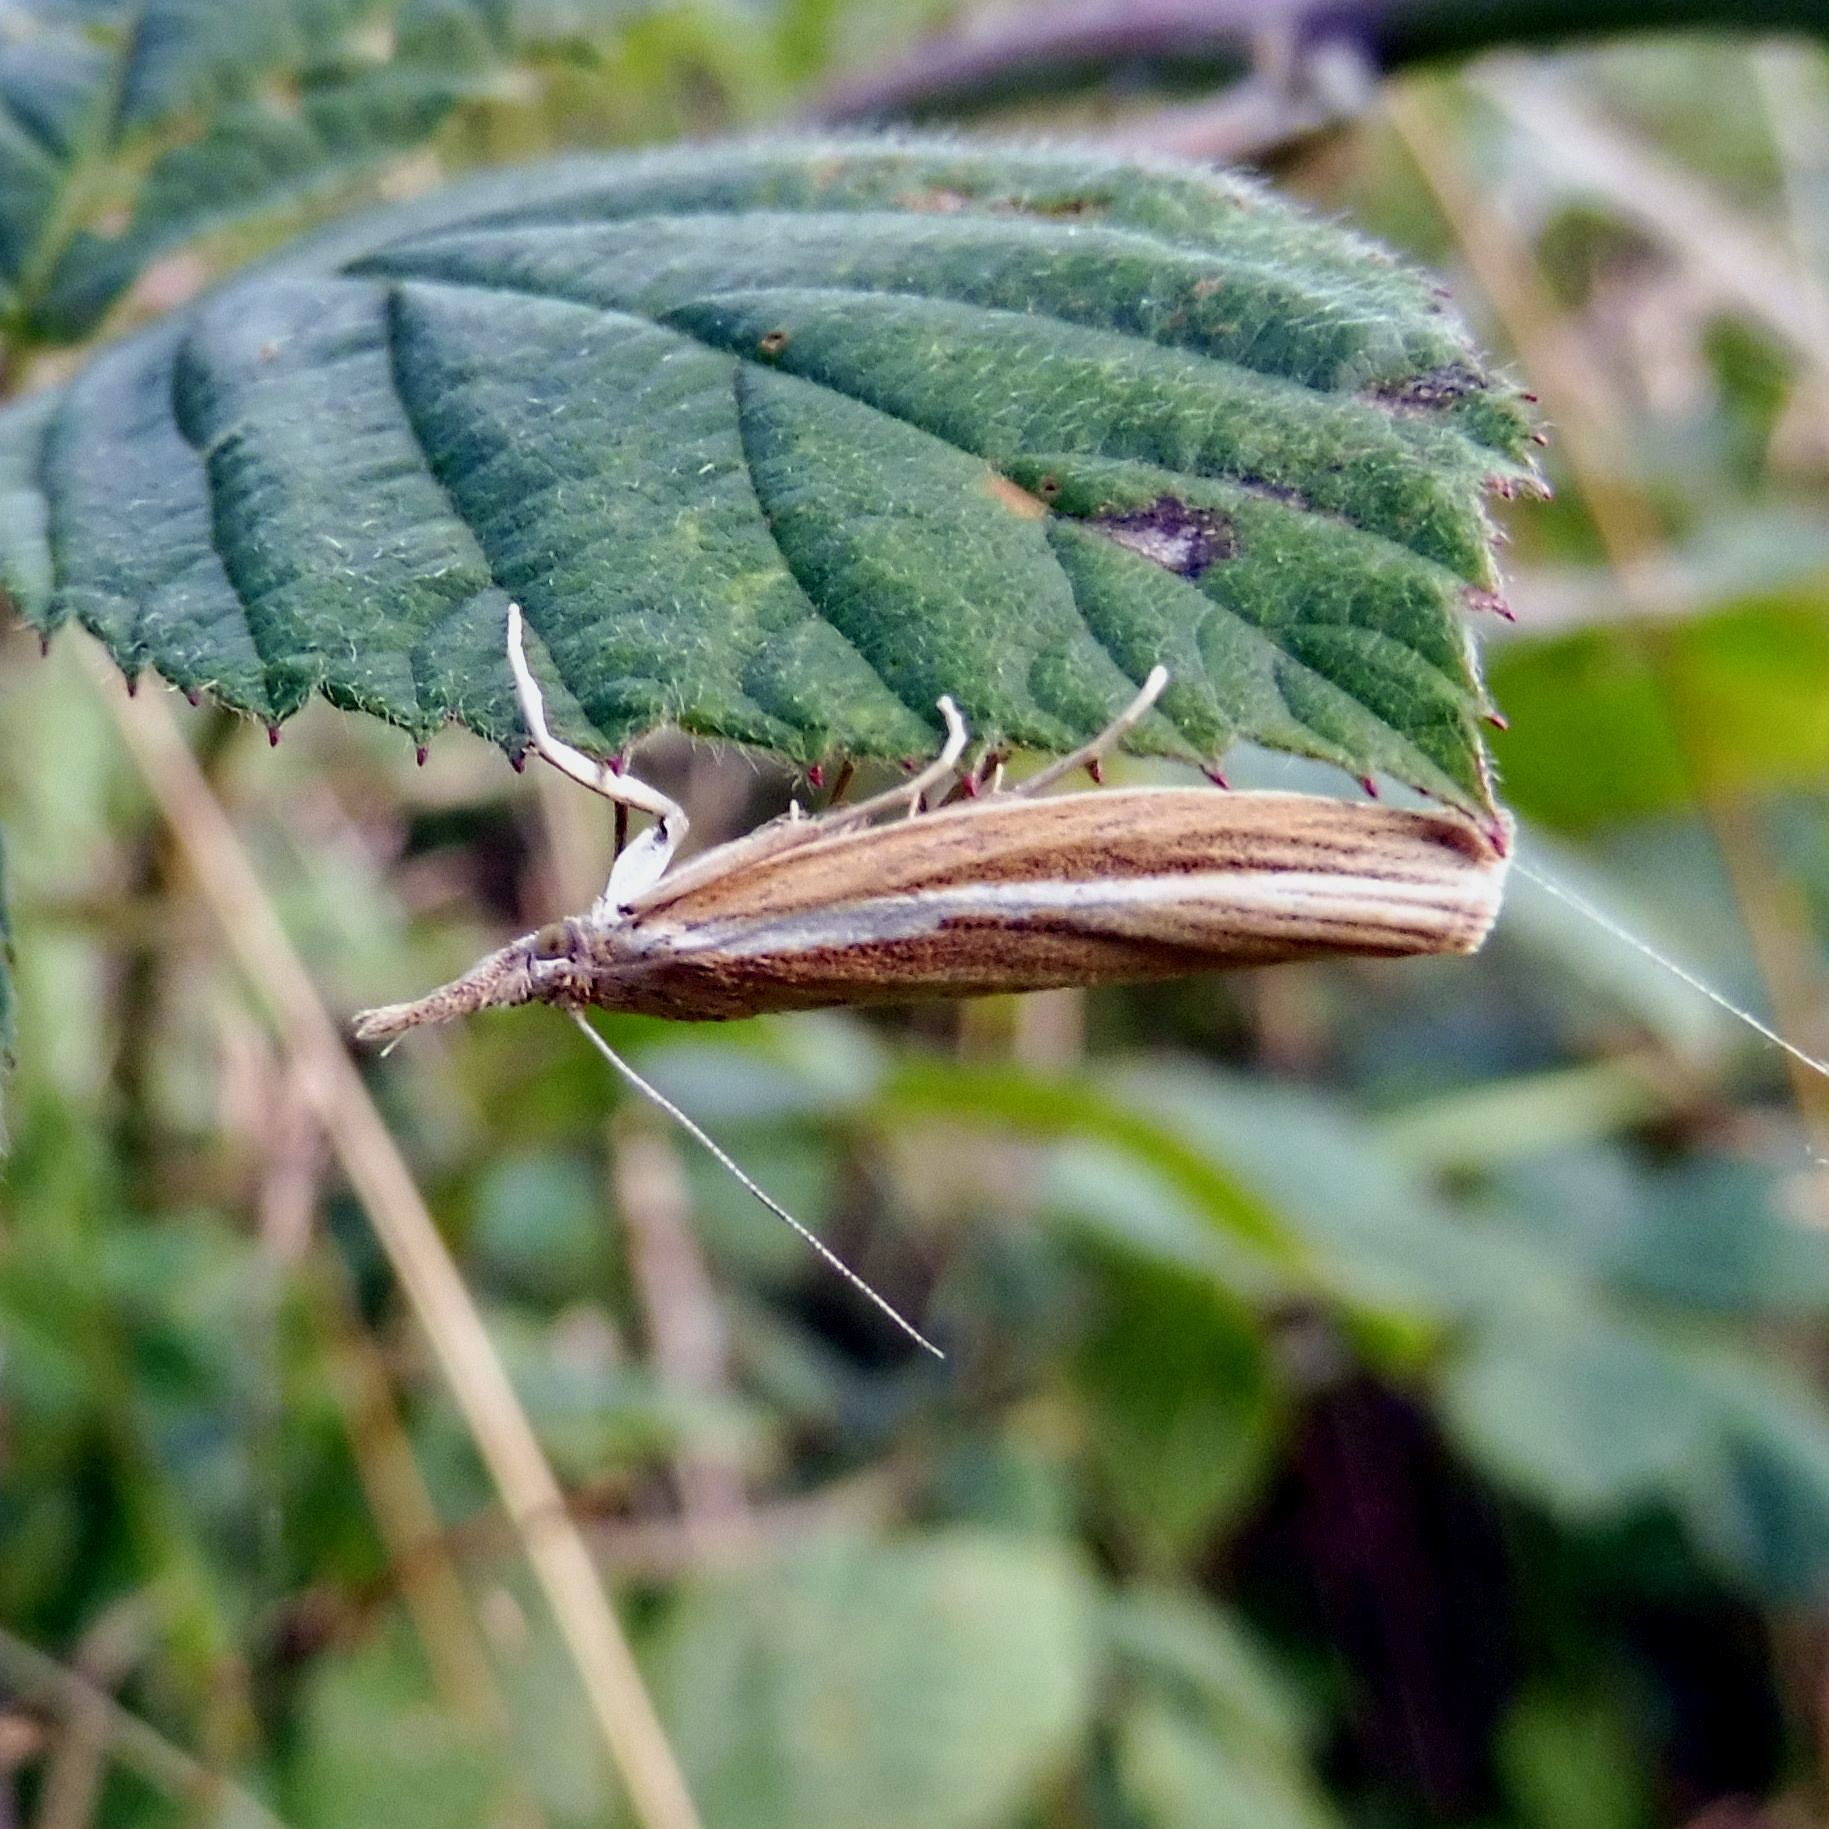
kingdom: Animalia
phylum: Arthropoda
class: Insecta
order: Lepidoptera
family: Crambidae
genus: Agriphila
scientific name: Agriphila tristellus
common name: Common grass-veneer
